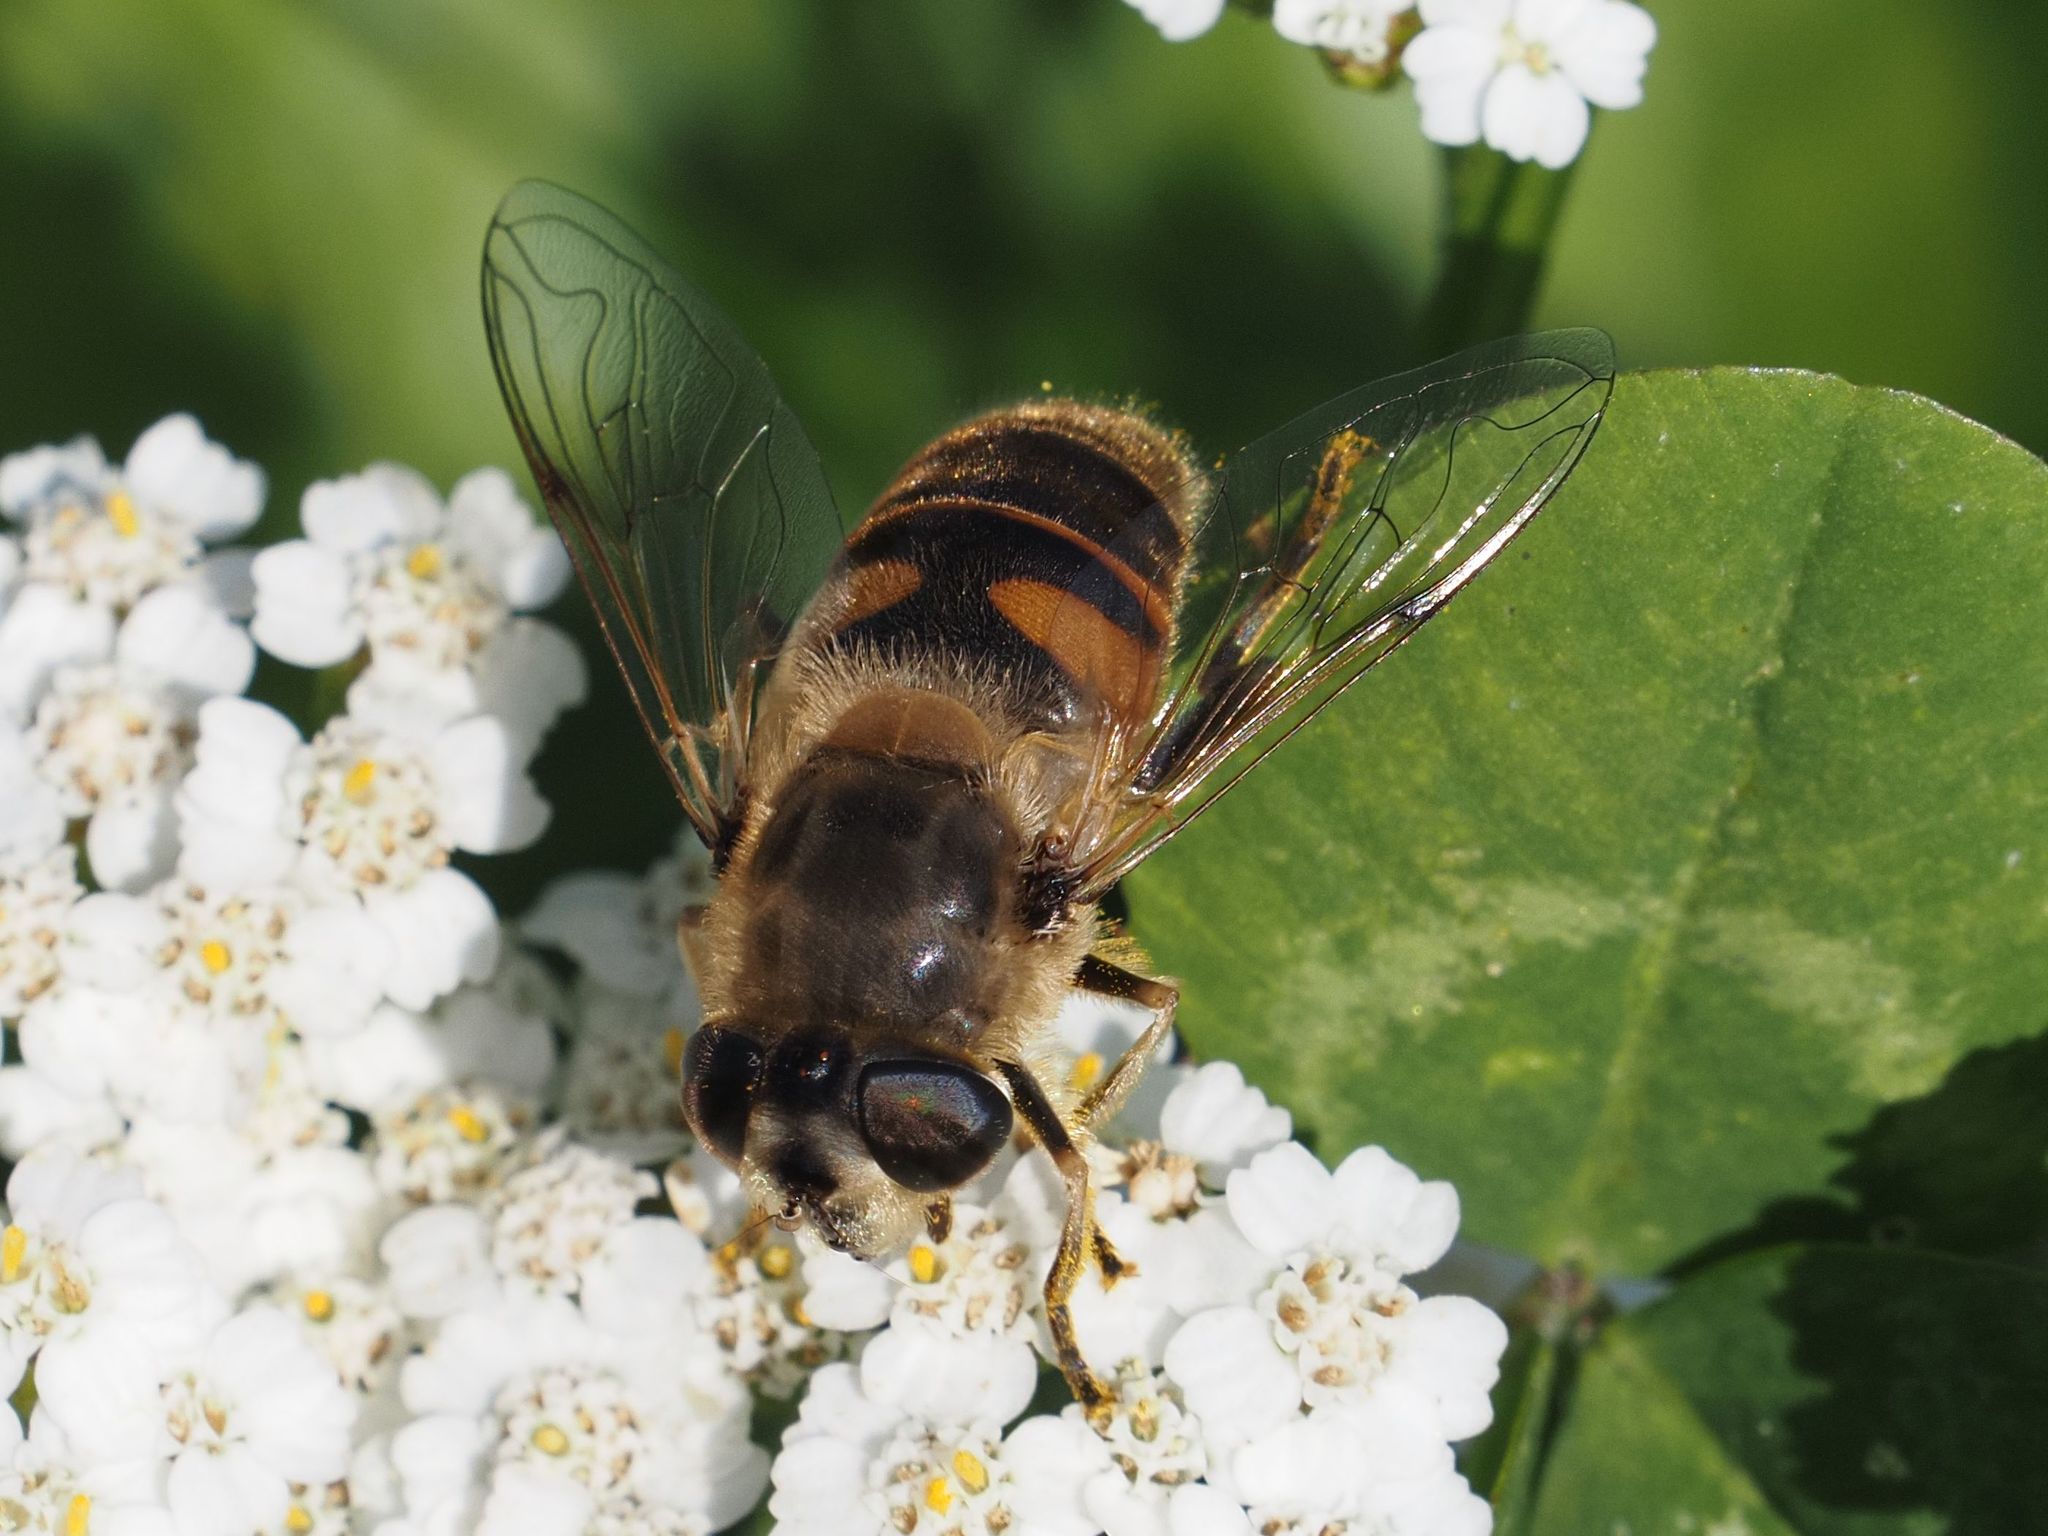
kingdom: Animalia
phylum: Arthropoda
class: Insecta
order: Diptera
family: Syrphidae
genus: Eristalis
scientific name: Eristalis tenax
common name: Drone fly
